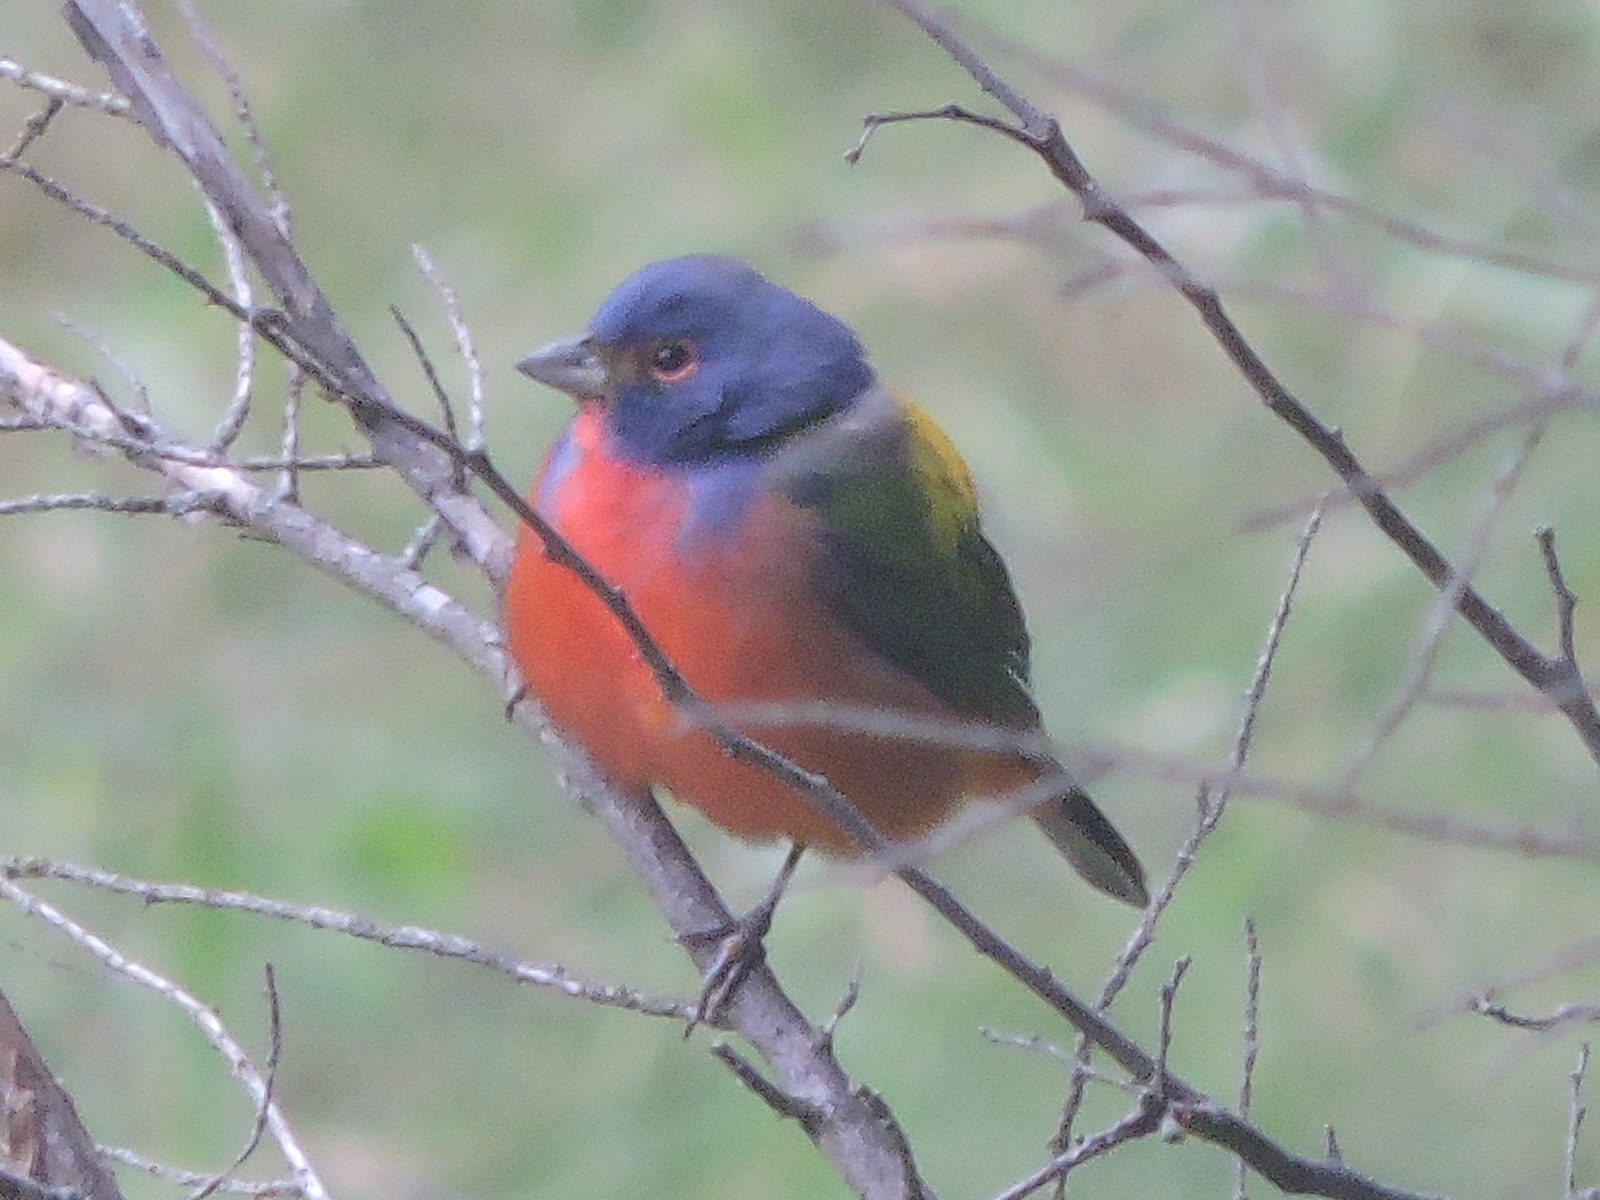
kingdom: Animalia
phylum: Chordata
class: Aves
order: Passeriformes
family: Cardinalidae
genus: Passerina
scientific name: Passerina ciris
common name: Painted bunting
